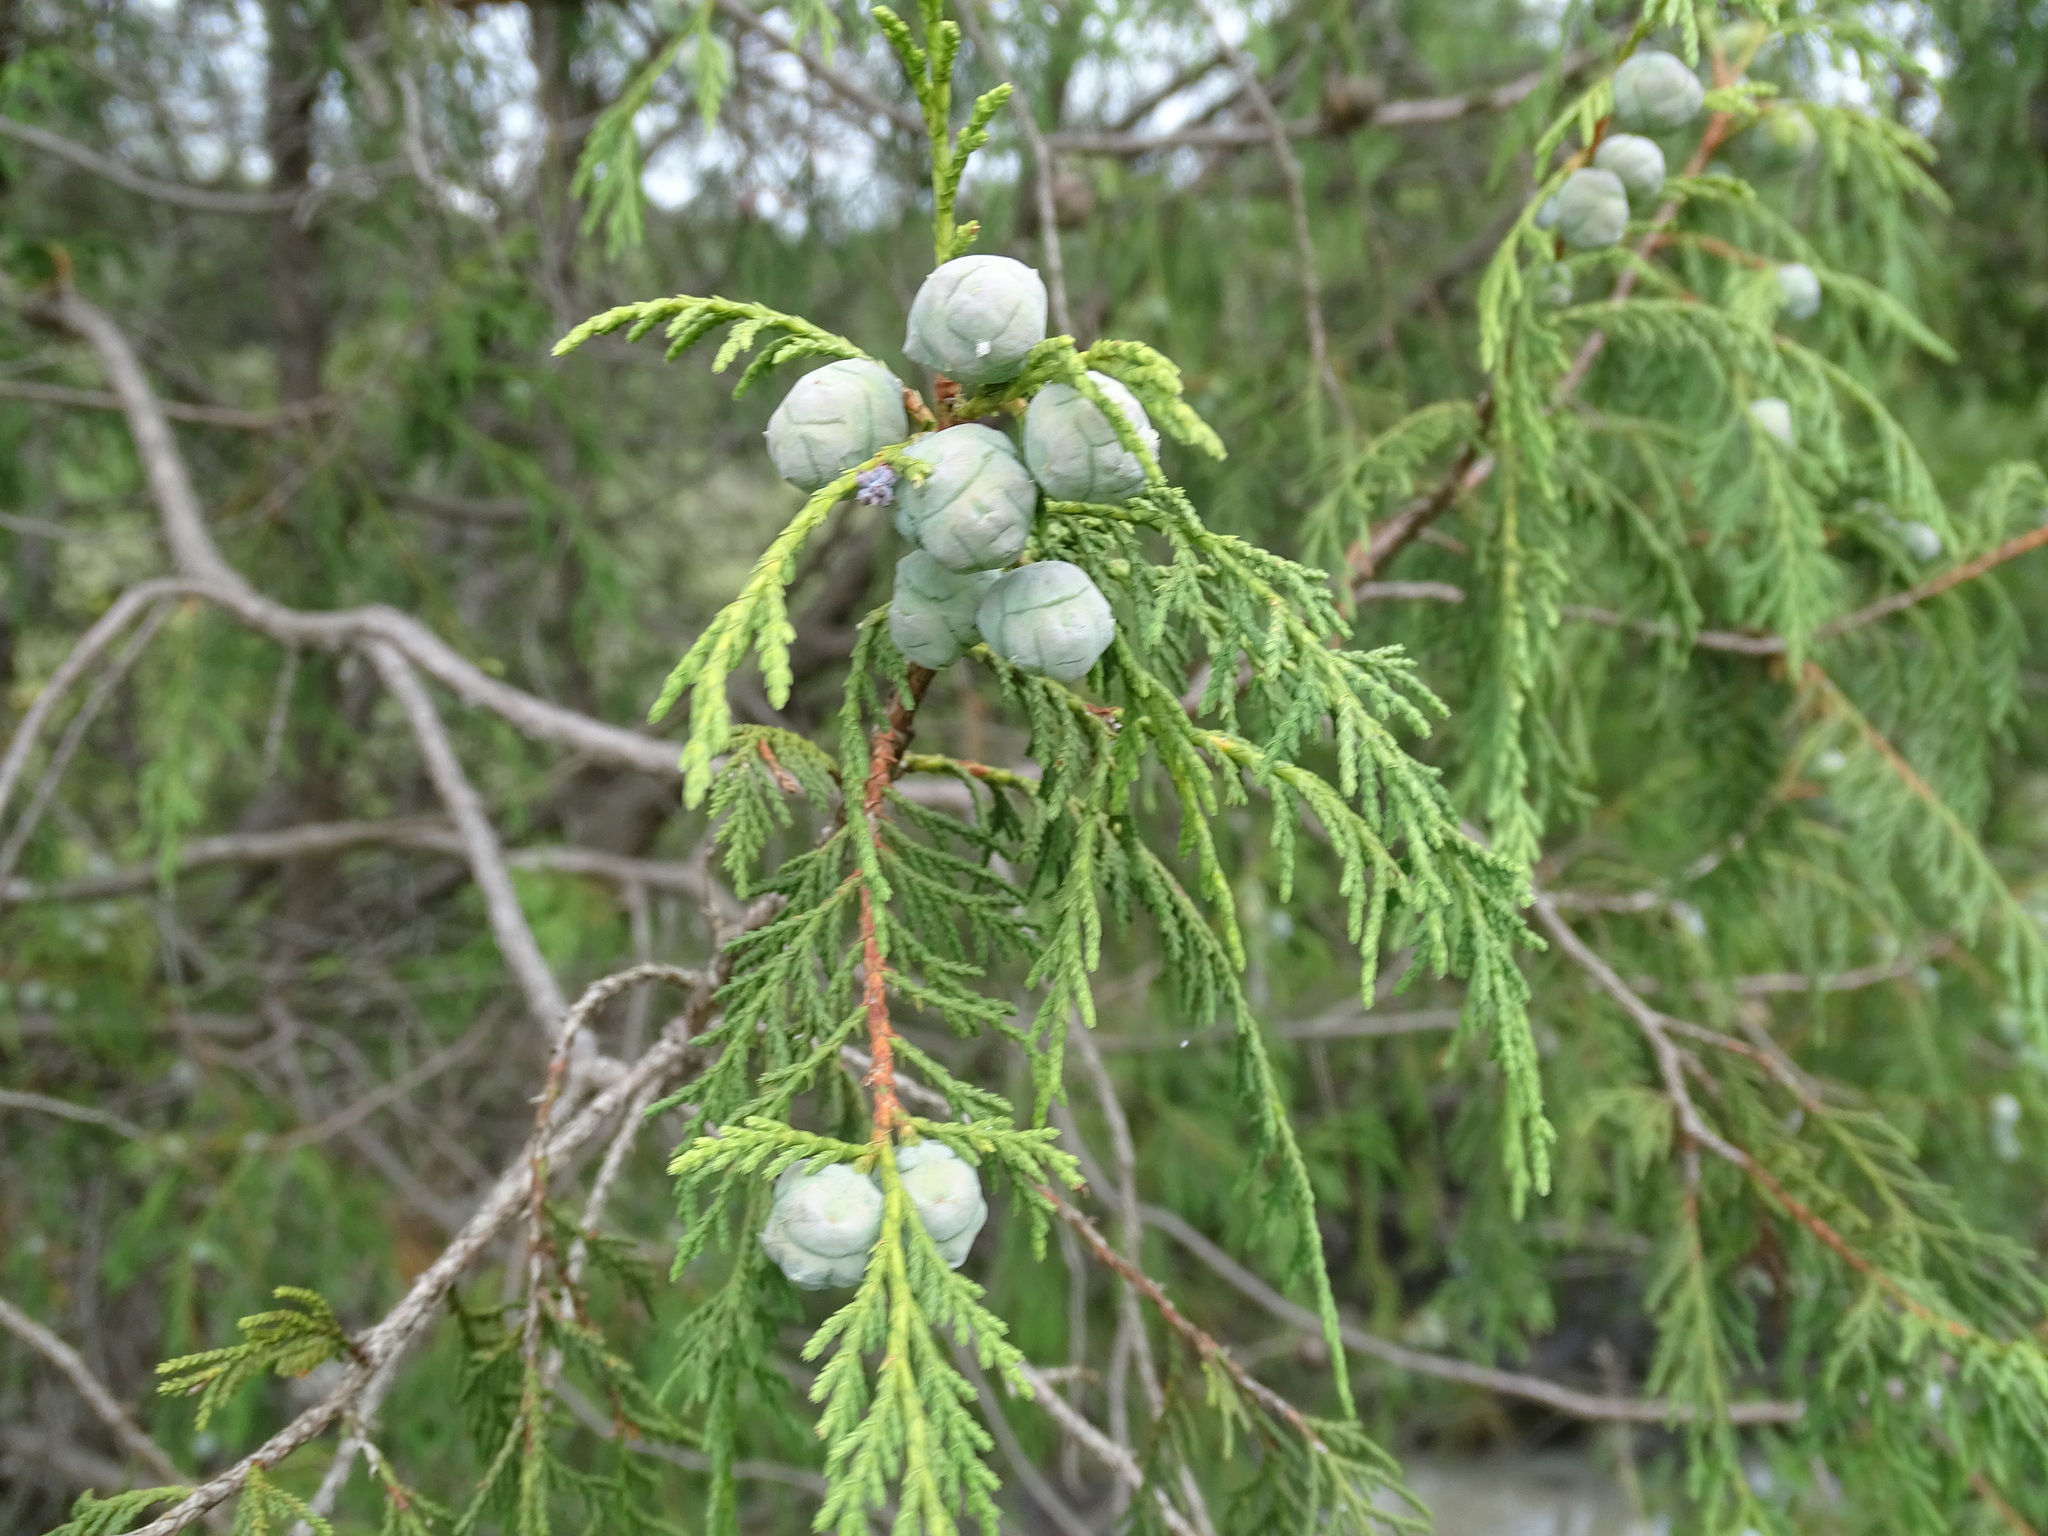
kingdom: Plantae
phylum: Tracheophyta
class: Pinopsida
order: Pinales
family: Cupressaceae
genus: Juniperus
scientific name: Juniperus flaccida
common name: Drooping juniper
